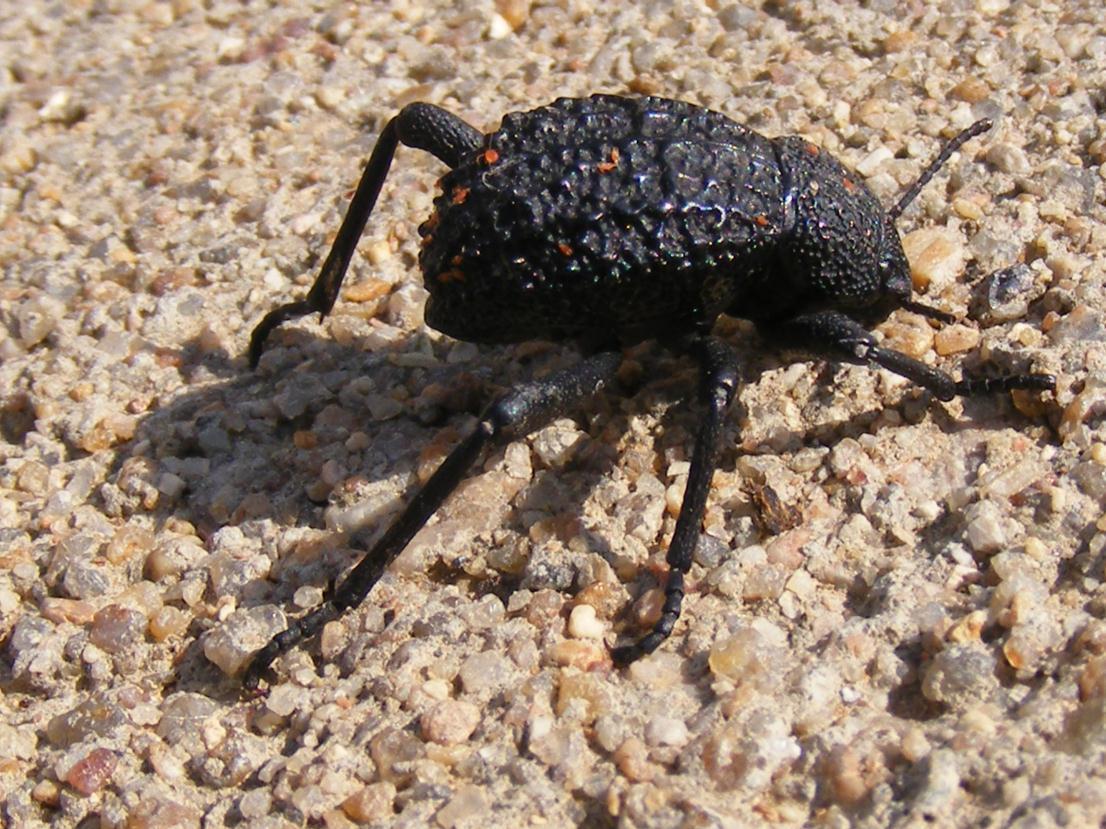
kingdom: Animalia
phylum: Arthropoda
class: Insecta
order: Coleoptera
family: Tenebrionidae
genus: Renatiella
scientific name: Renatiella
